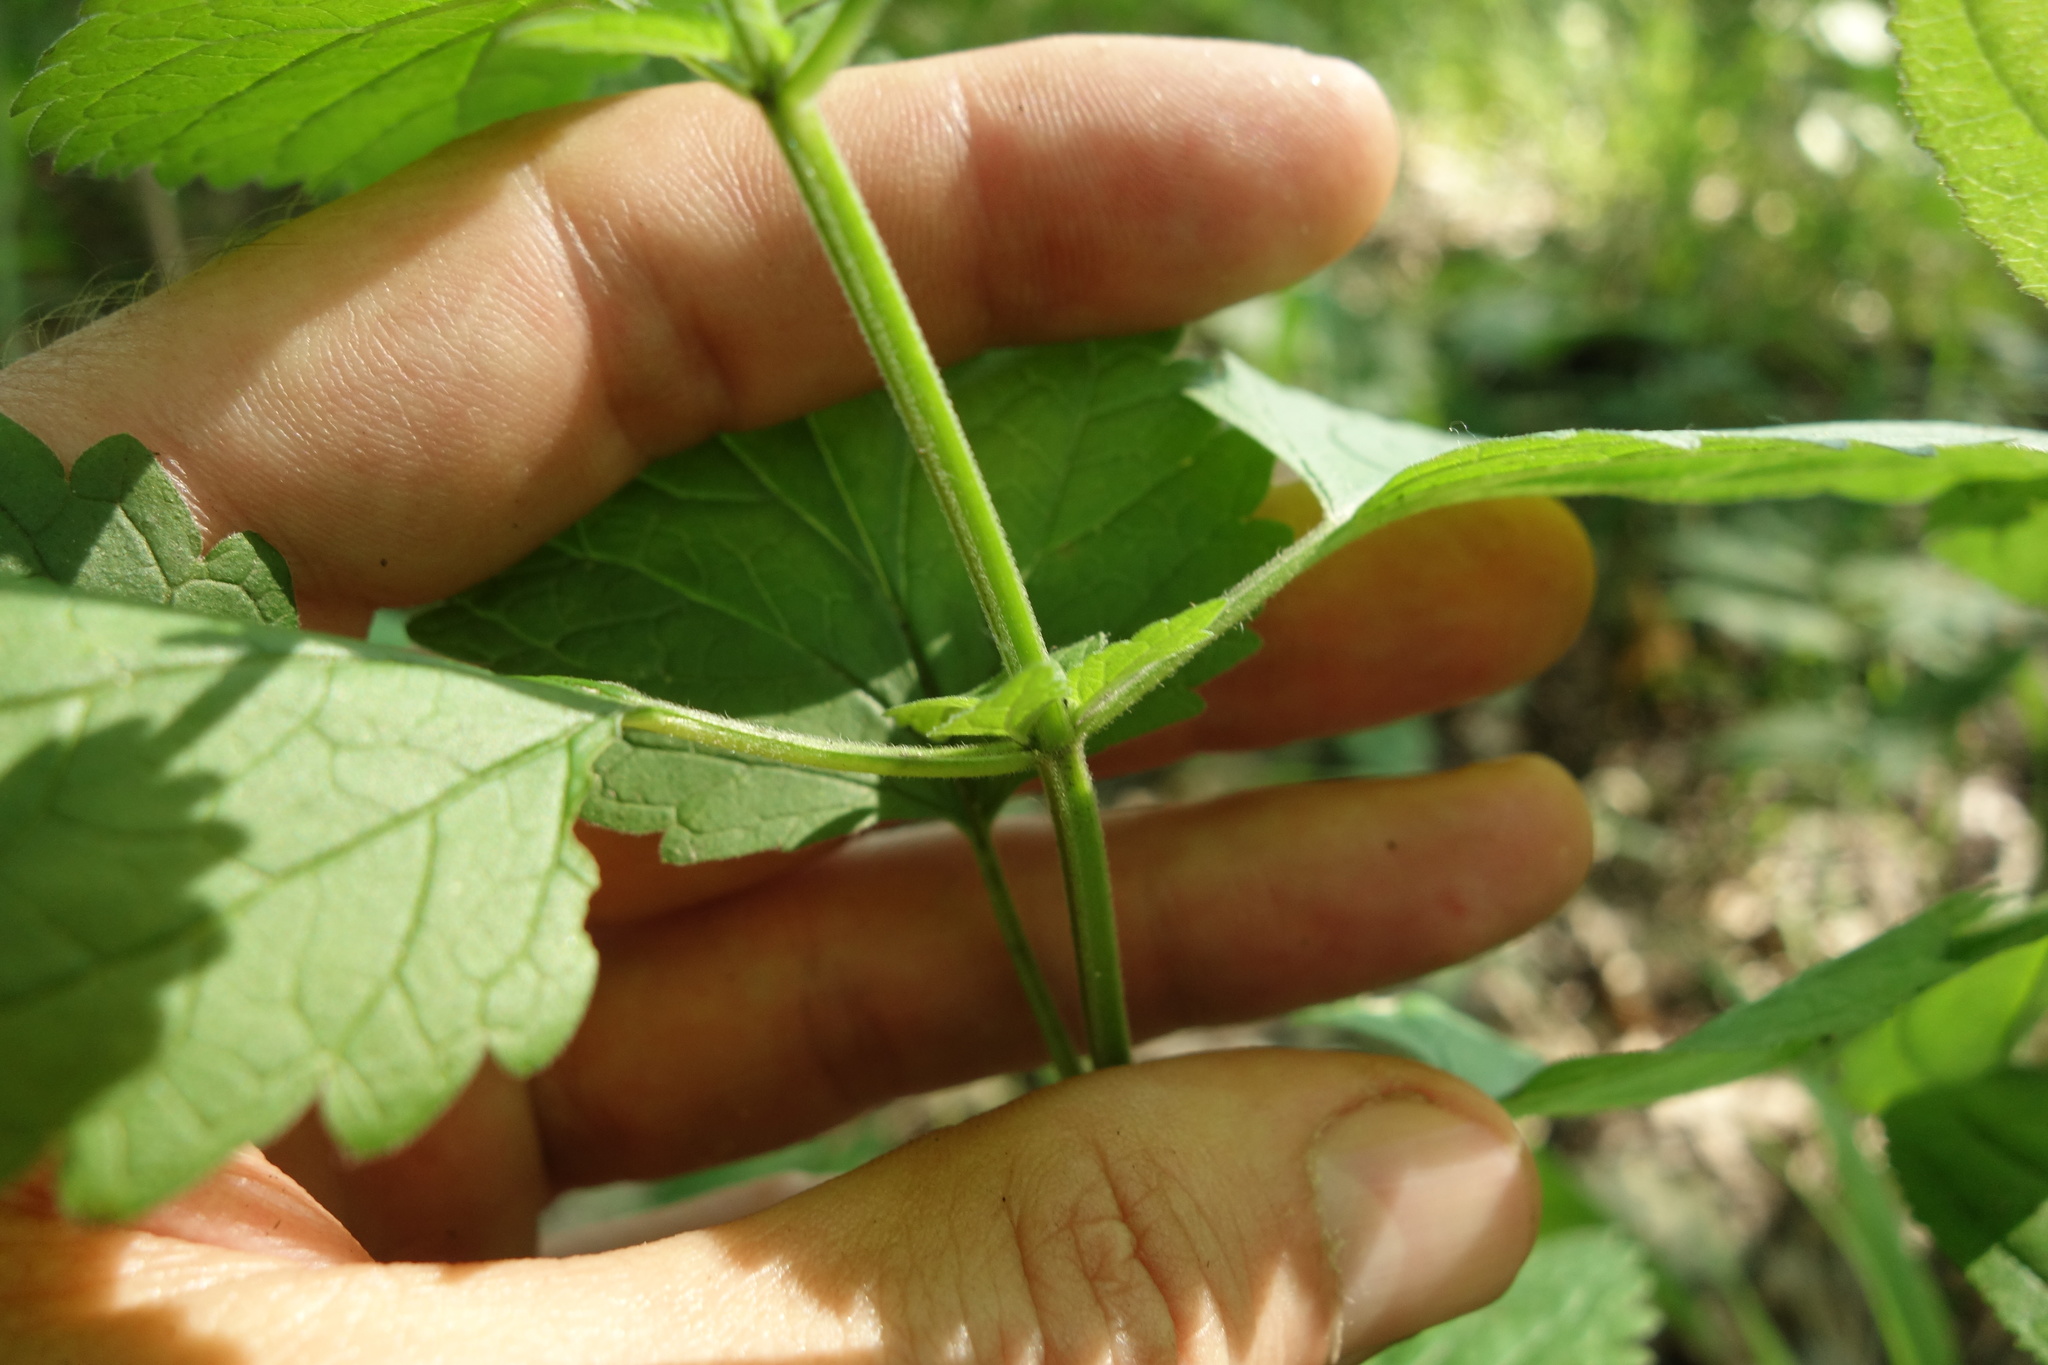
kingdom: Plantae
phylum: Tracheophyta
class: Magnoliopsida
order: Lamiales
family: Lamiaceae
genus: Scutellaria
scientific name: Scutellaria altissima
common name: Somerset skullcap
